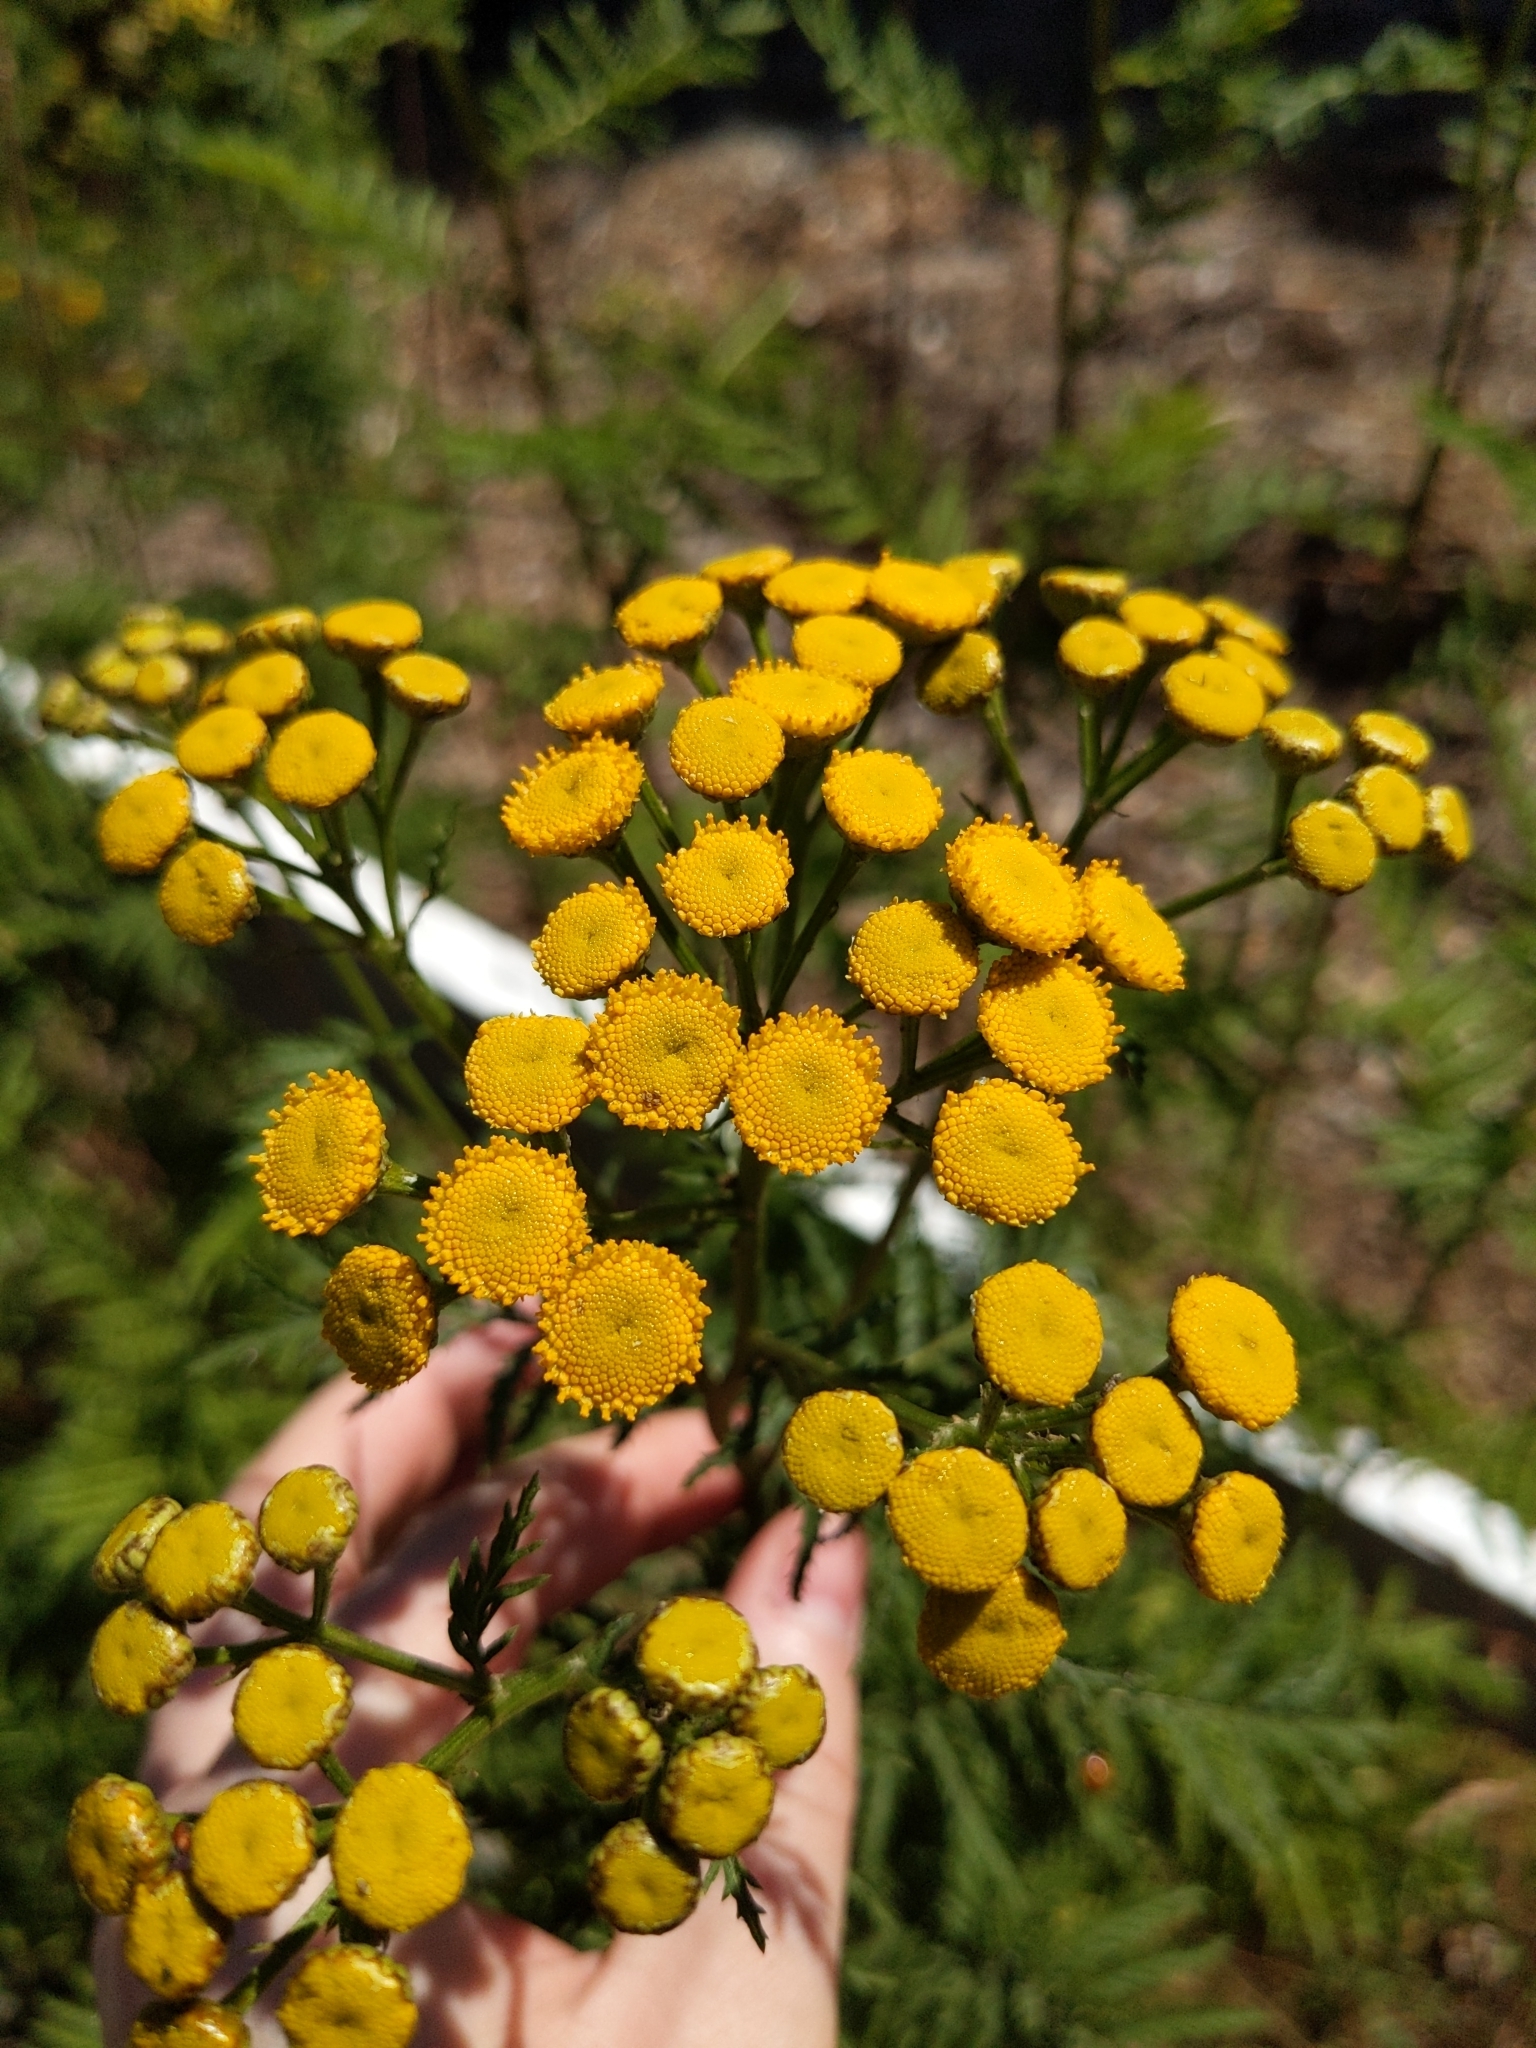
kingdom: Plantae
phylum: Tracheophyta
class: Magnoliopsida
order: Asterales
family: Asteraceae
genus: Tanacetum
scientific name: Tanacetum vulgare
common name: Common tansy
